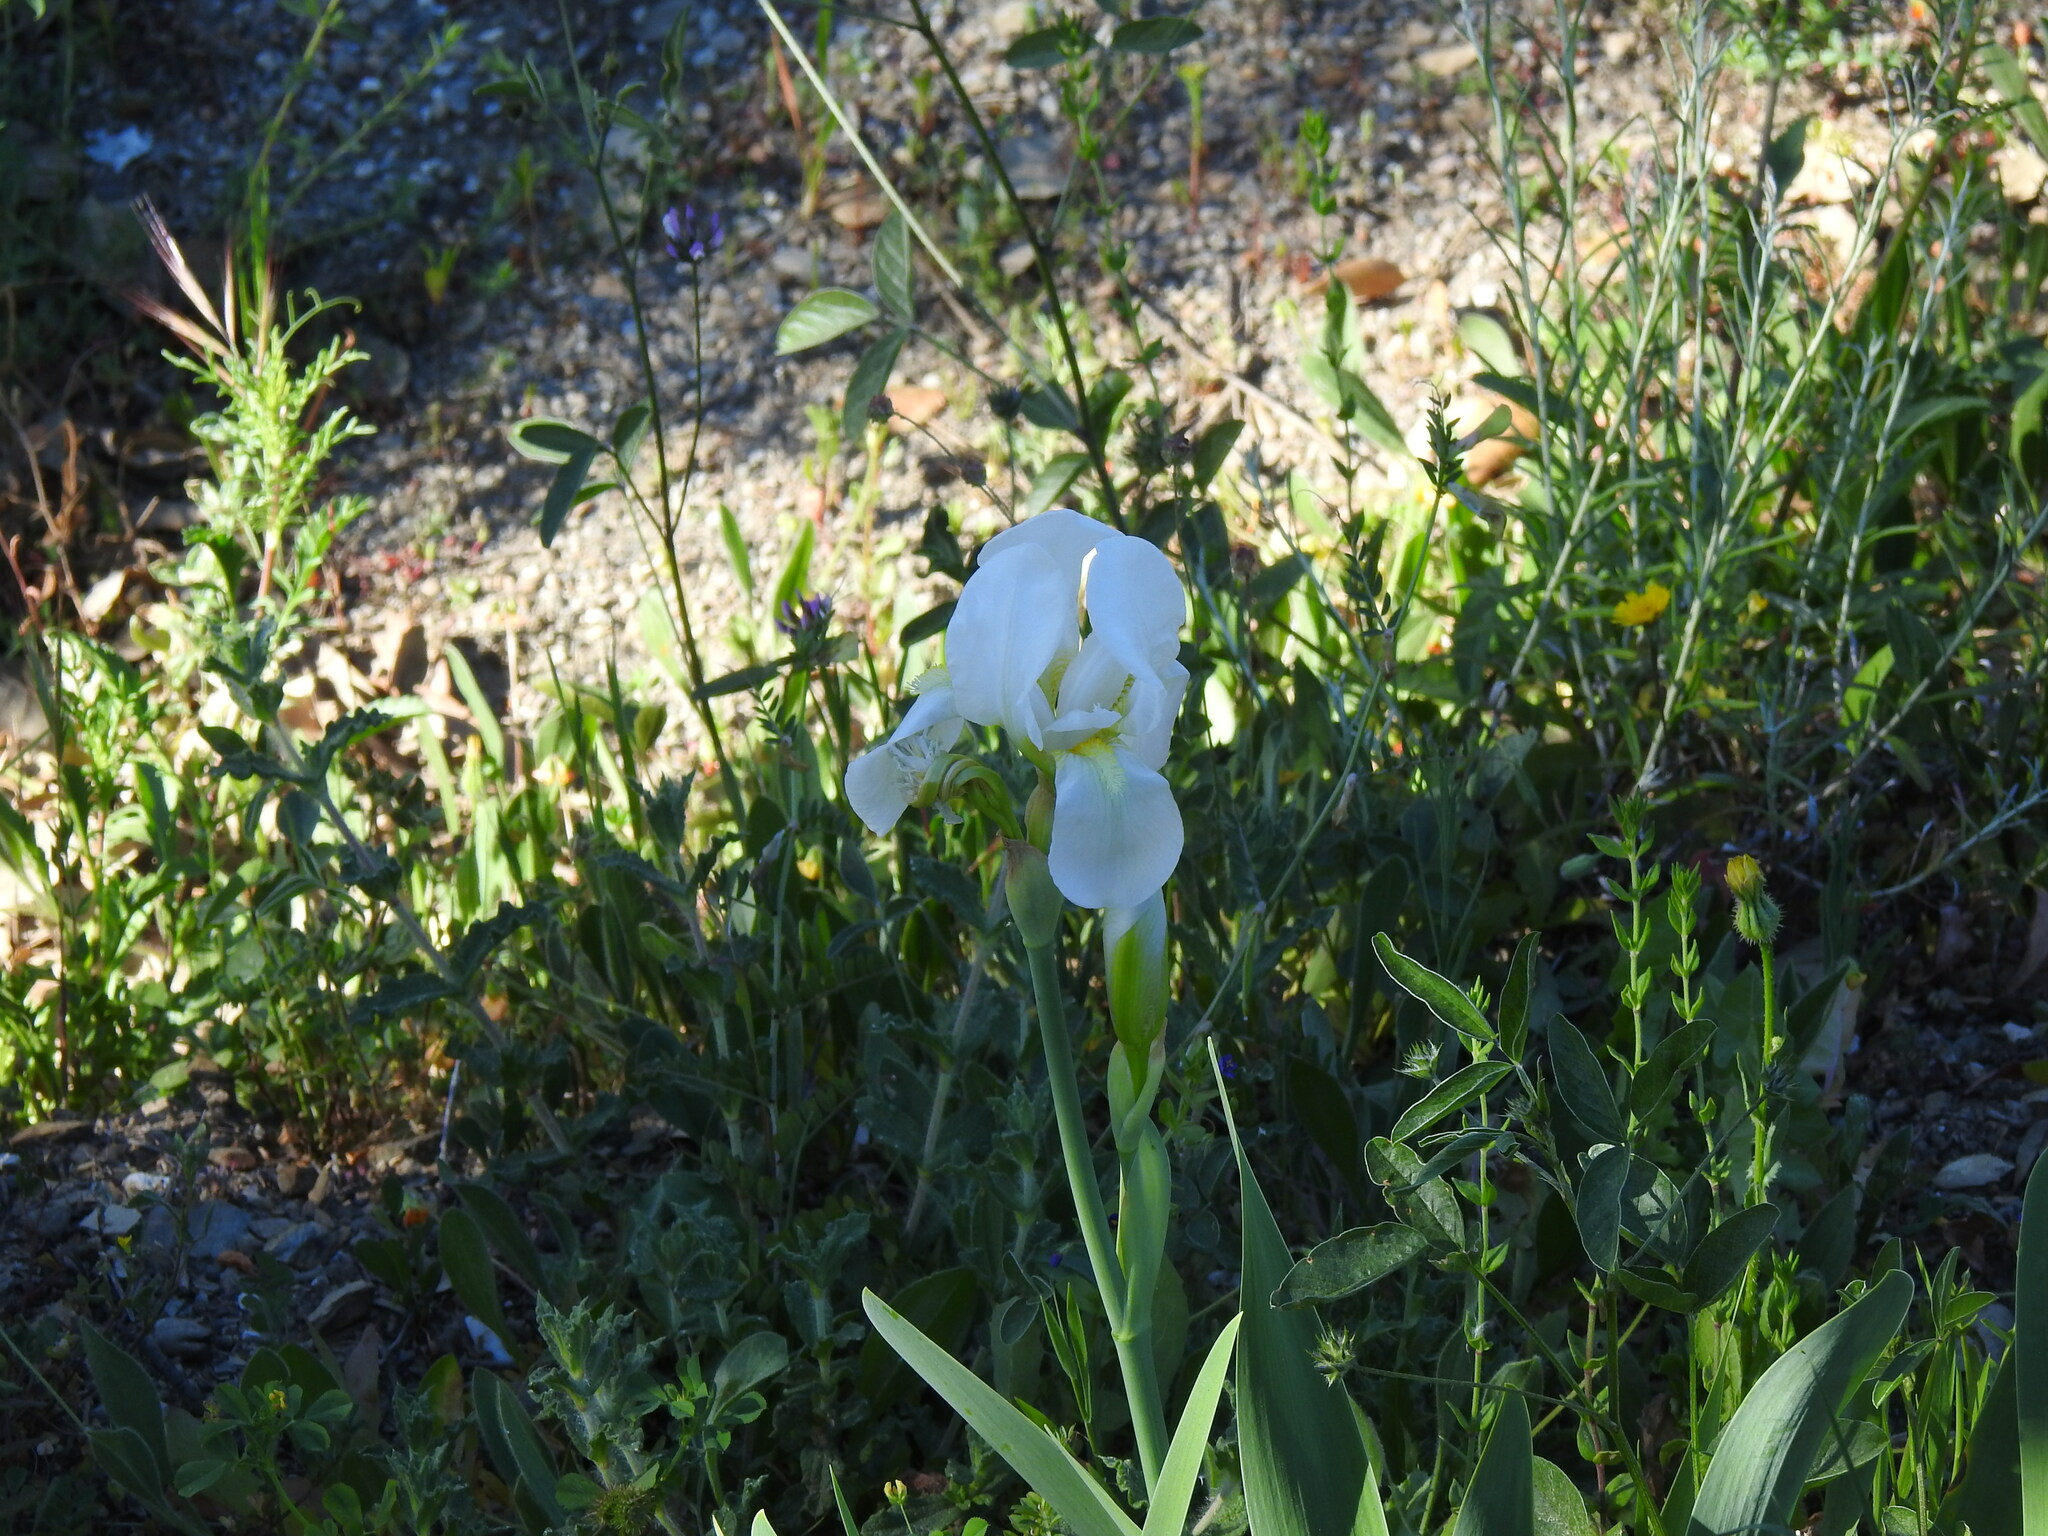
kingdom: Plantae
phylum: Tracheophyta
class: Liliopsida
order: Asparagales
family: Iridaceae
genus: Iris
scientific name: Iris florentina
